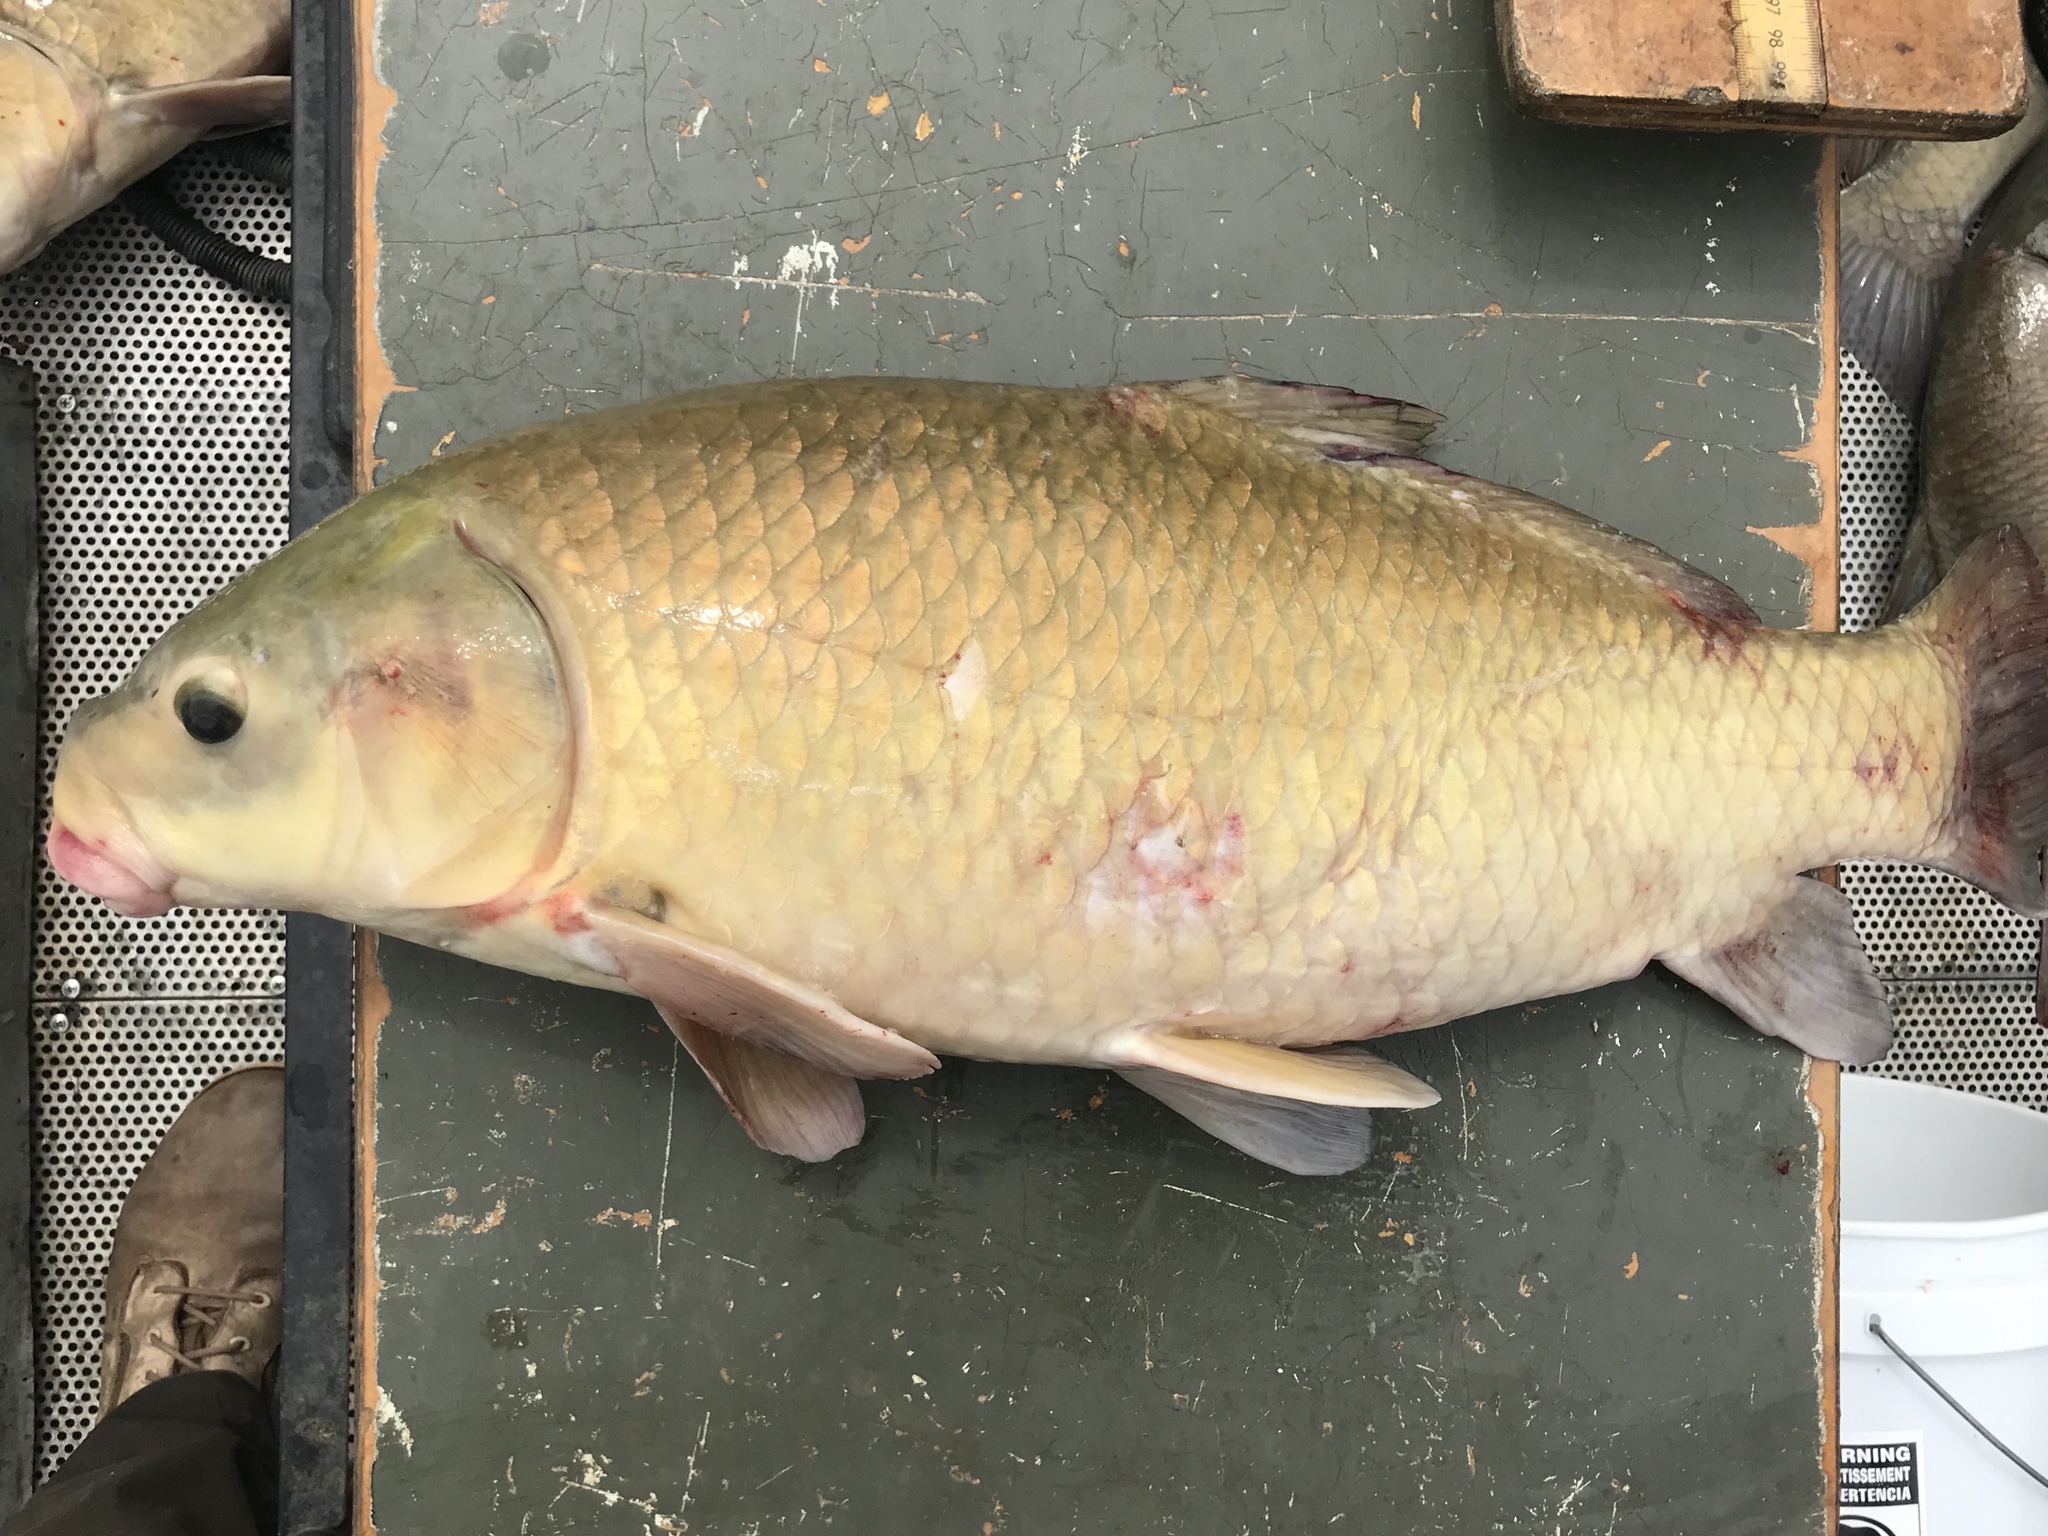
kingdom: Animalia
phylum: Chordata
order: Cypriniformes
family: Catostomidae
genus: Ictiobus
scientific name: Ictiobus bubalus
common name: Smallmouth buffalo
